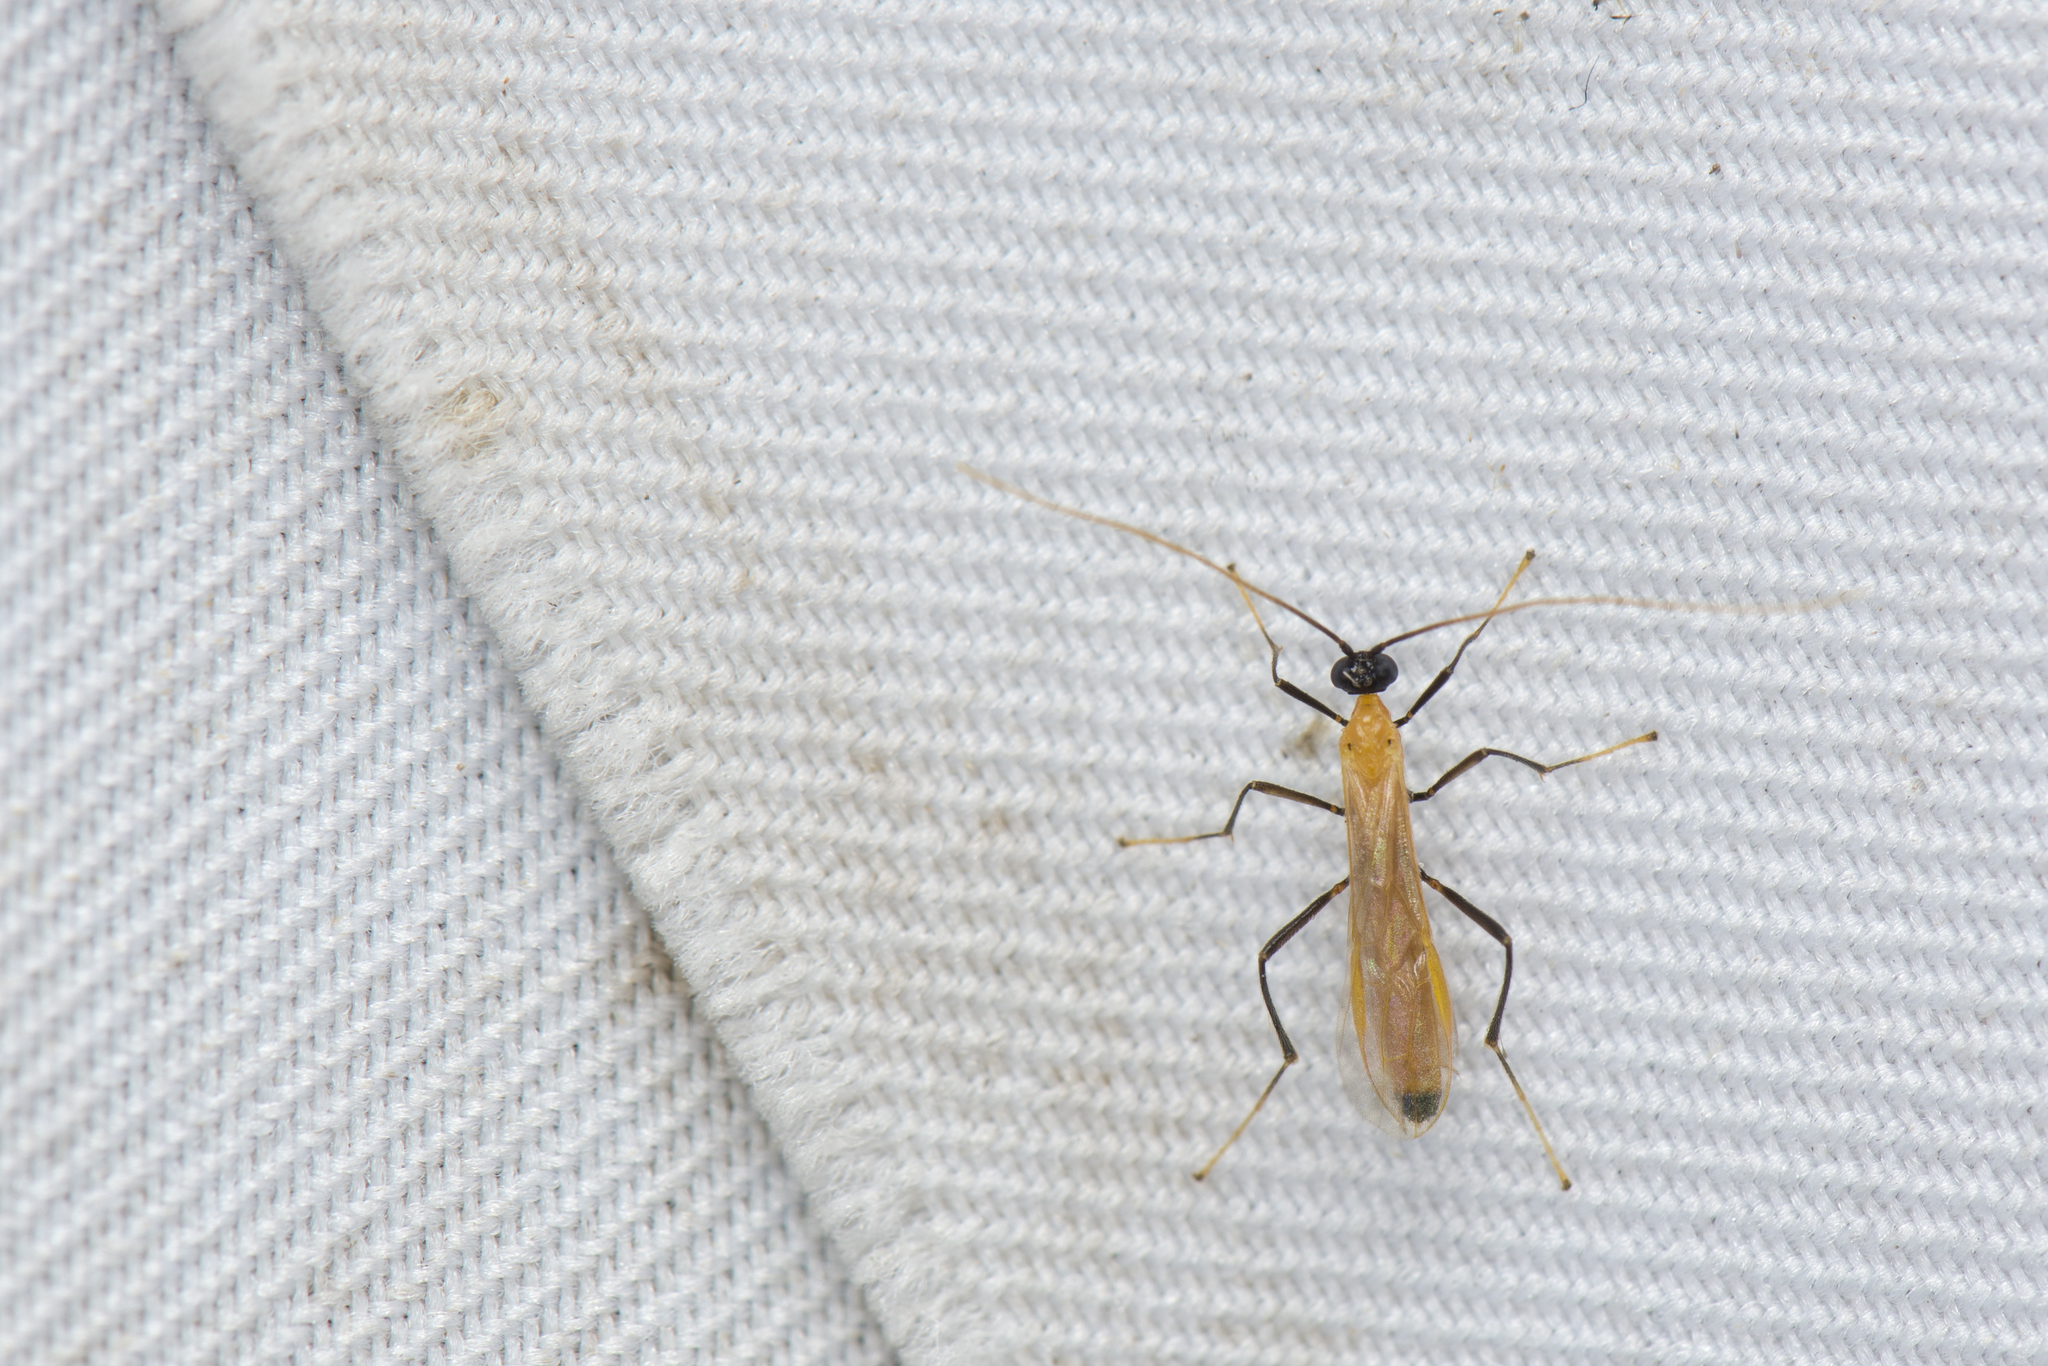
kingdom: Animalia
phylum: Arthropoda
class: Insecta
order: Hymenoptera
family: Braconidae
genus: Megarhogas
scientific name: Megarhogas perinae
